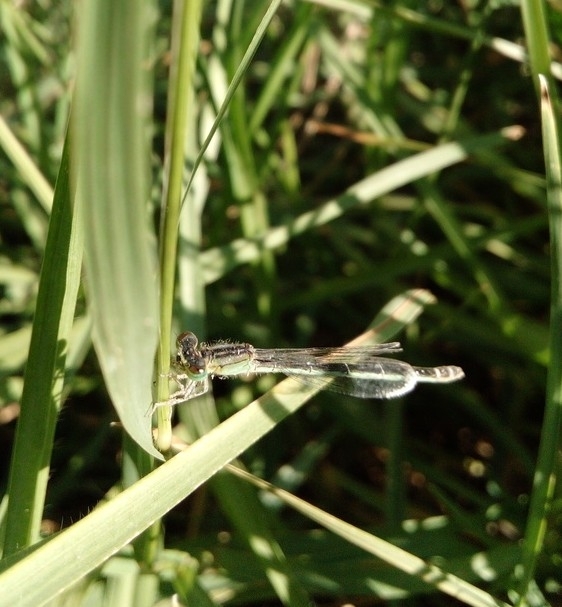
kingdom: Animalia
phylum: Arthropoda
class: Insecta
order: Odonata
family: Coenagrionidae
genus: Ischnura
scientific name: Ischnura graellsii
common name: Iberian bluetail
